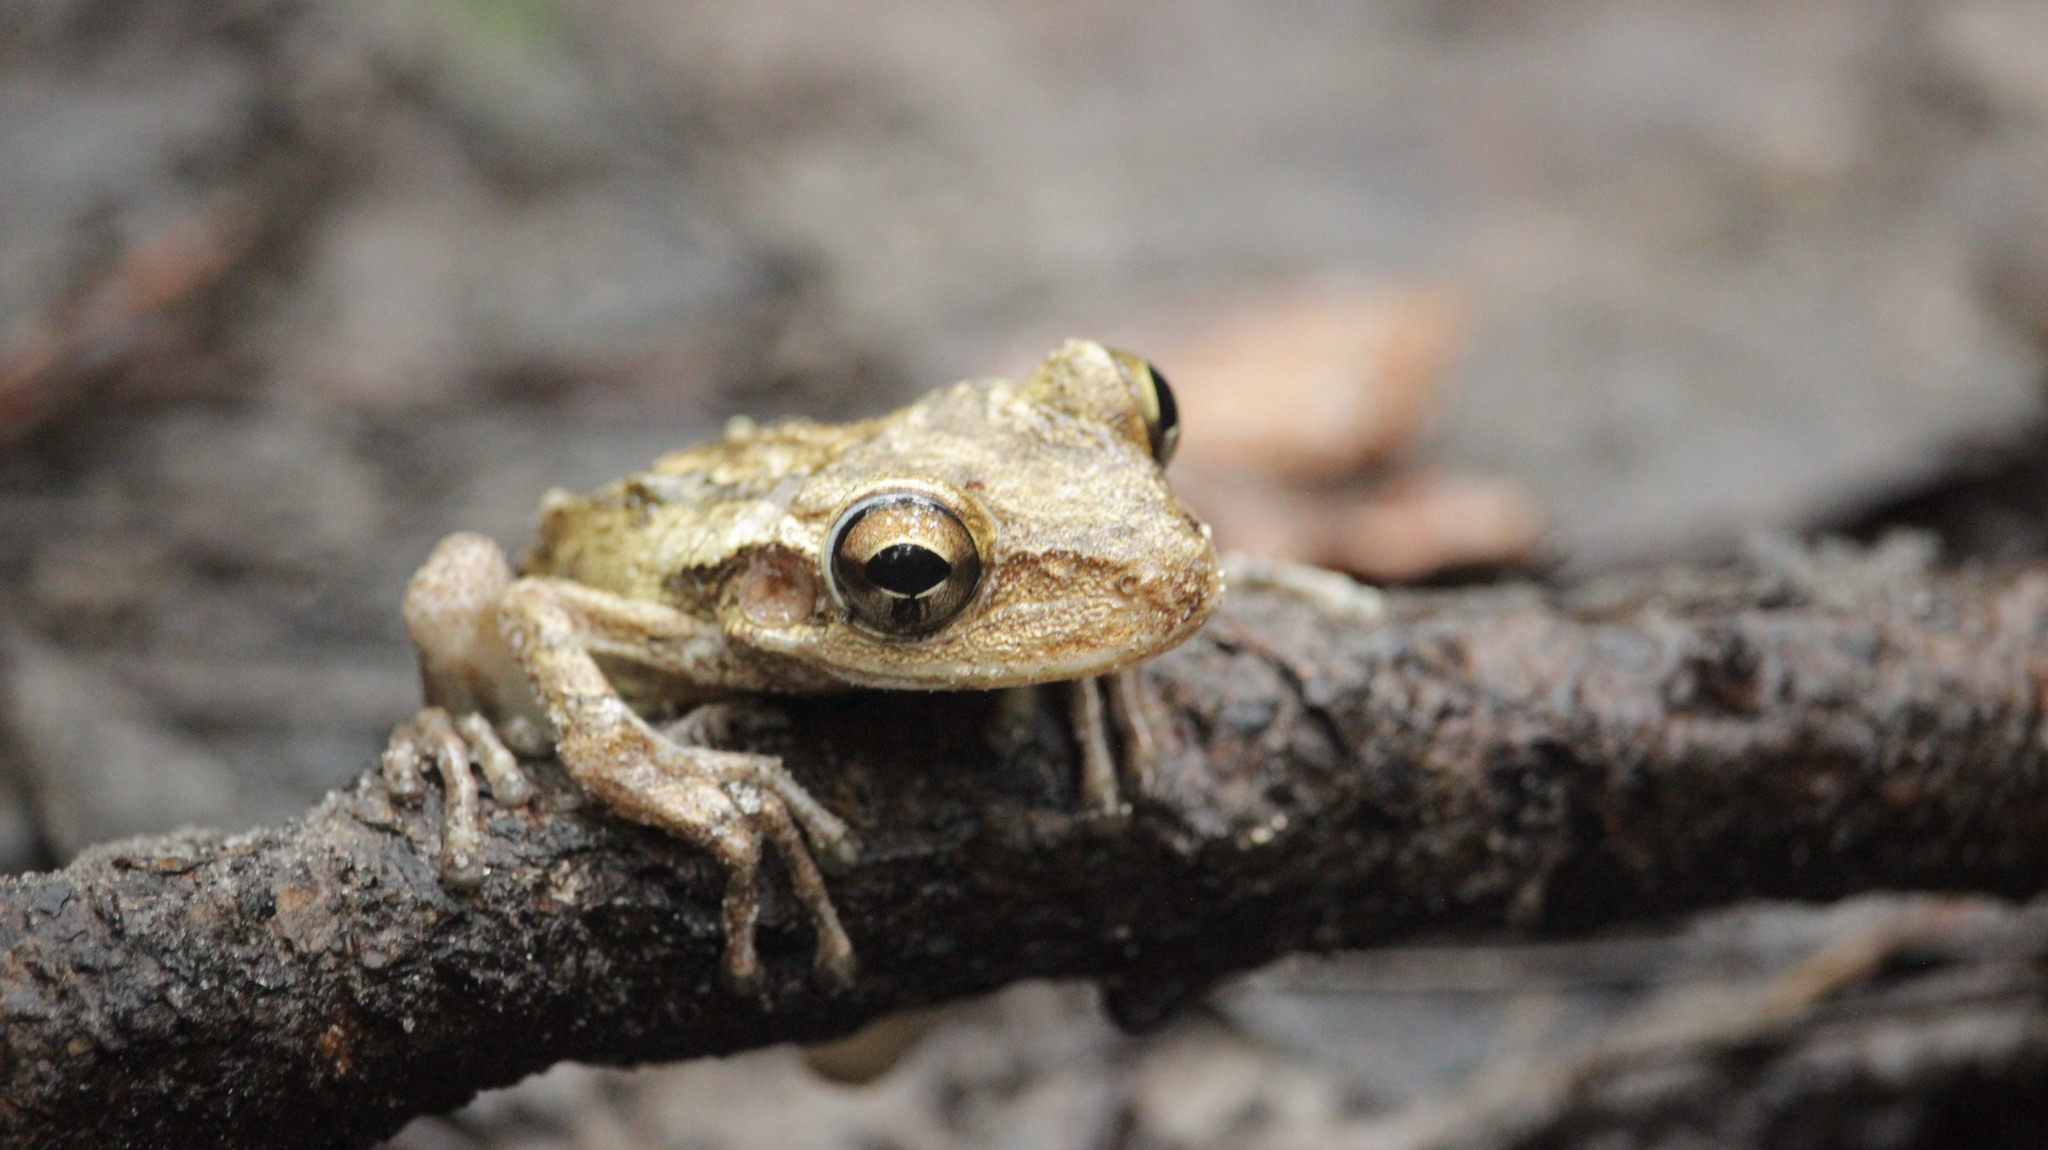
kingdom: Animalia
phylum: Chordata
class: Amphibia
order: Anura
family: Hylidae
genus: Osteopilus
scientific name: Osteopilus septentrionalis
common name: Cuban treefrog
